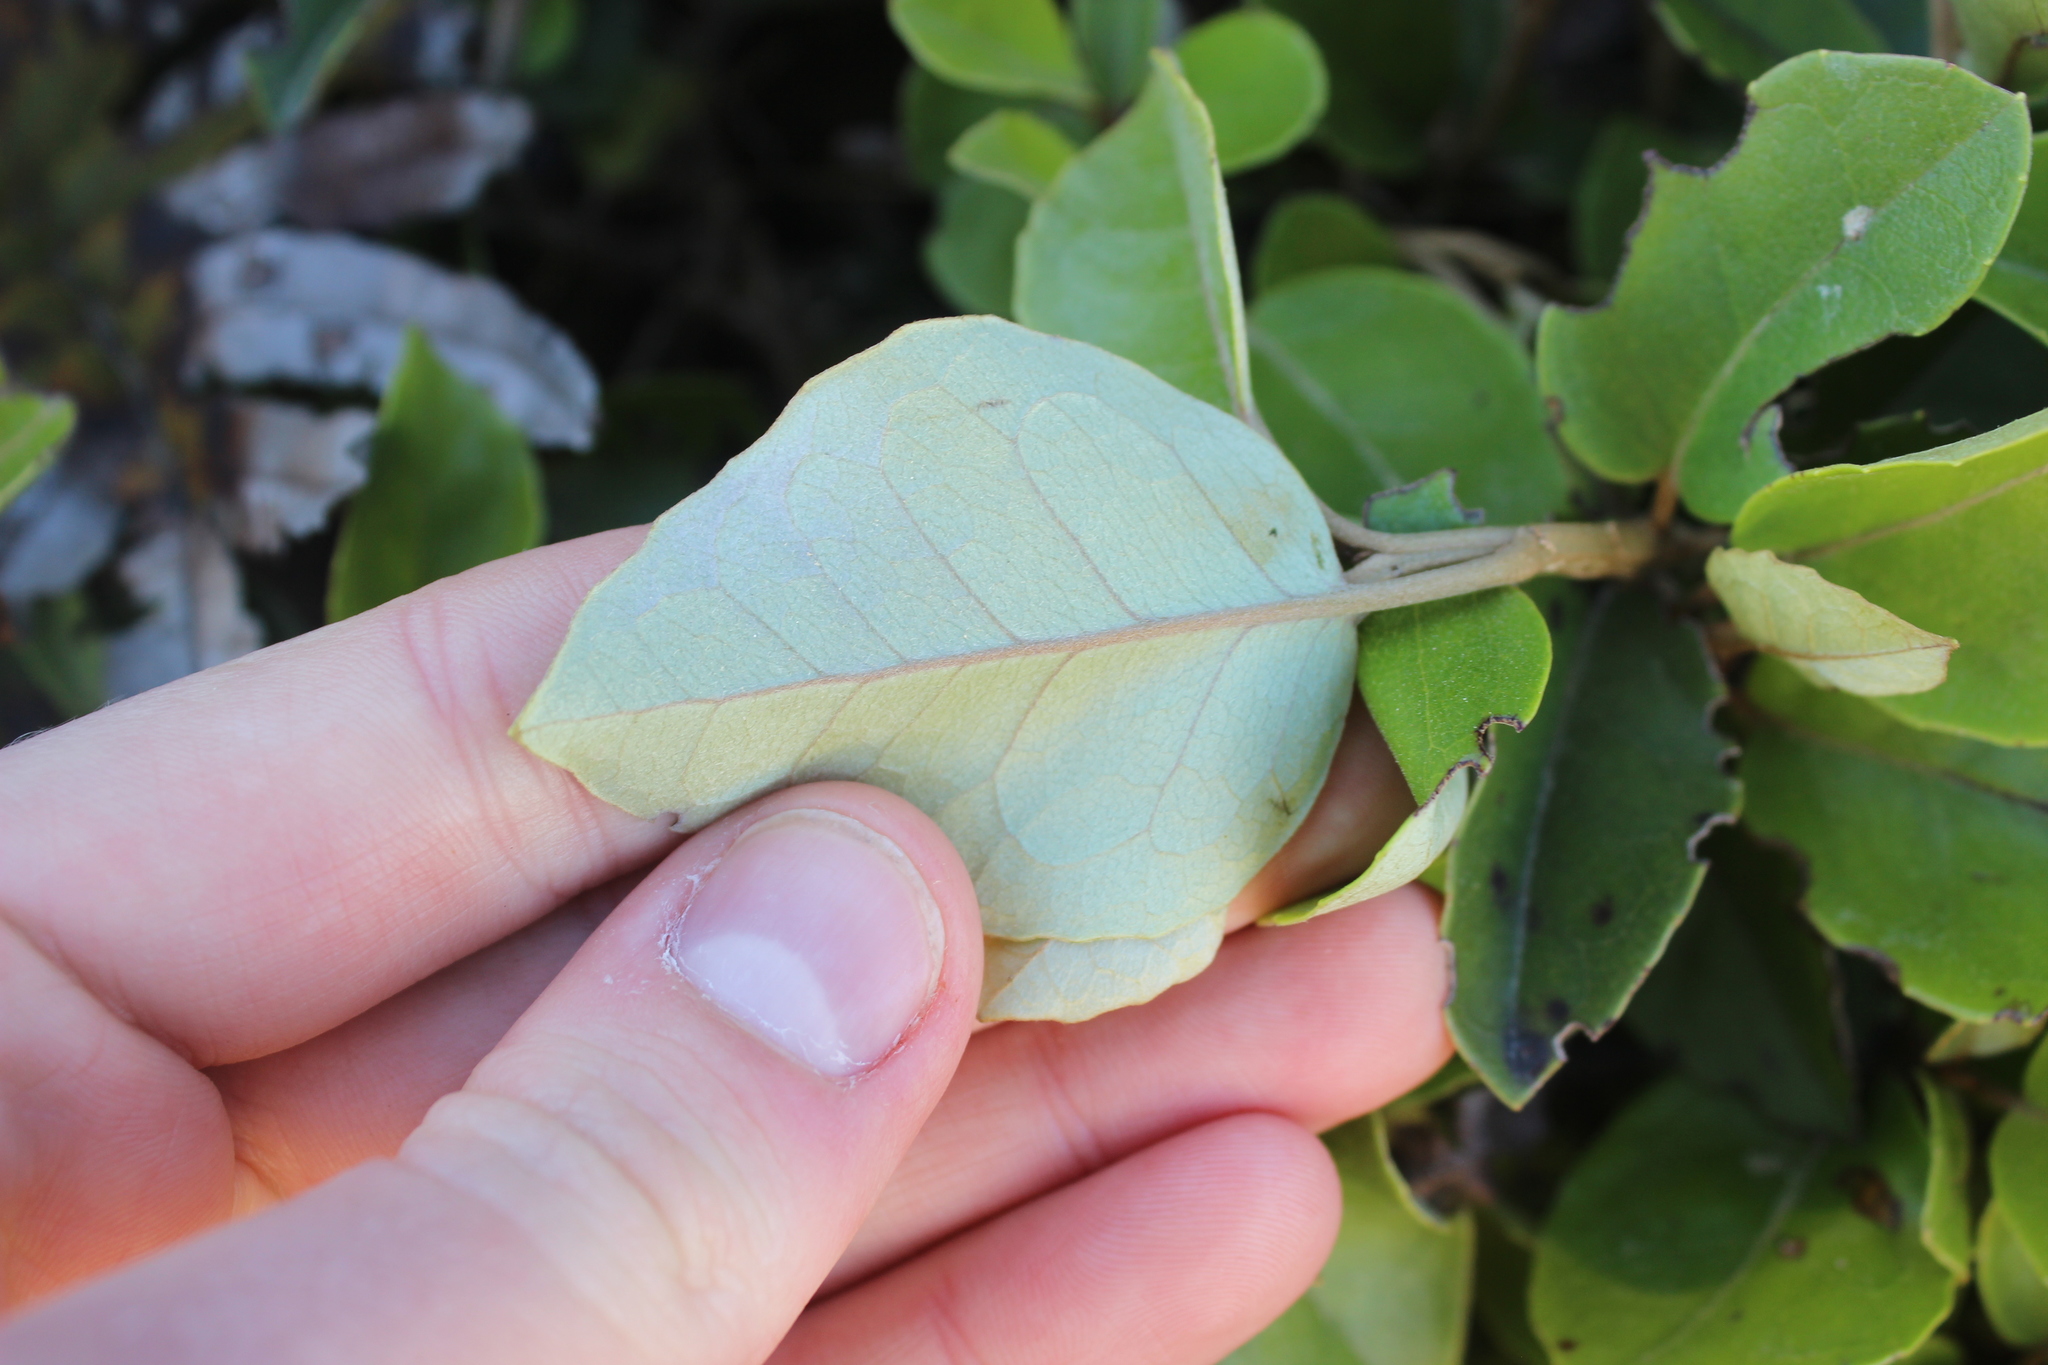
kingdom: Plantae
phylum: Tracheophyta
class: Magnoliopsida
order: Asterales
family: Asteraceae
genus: Olearia
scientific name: Olearia arborescens
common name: Glossy tree daisy
